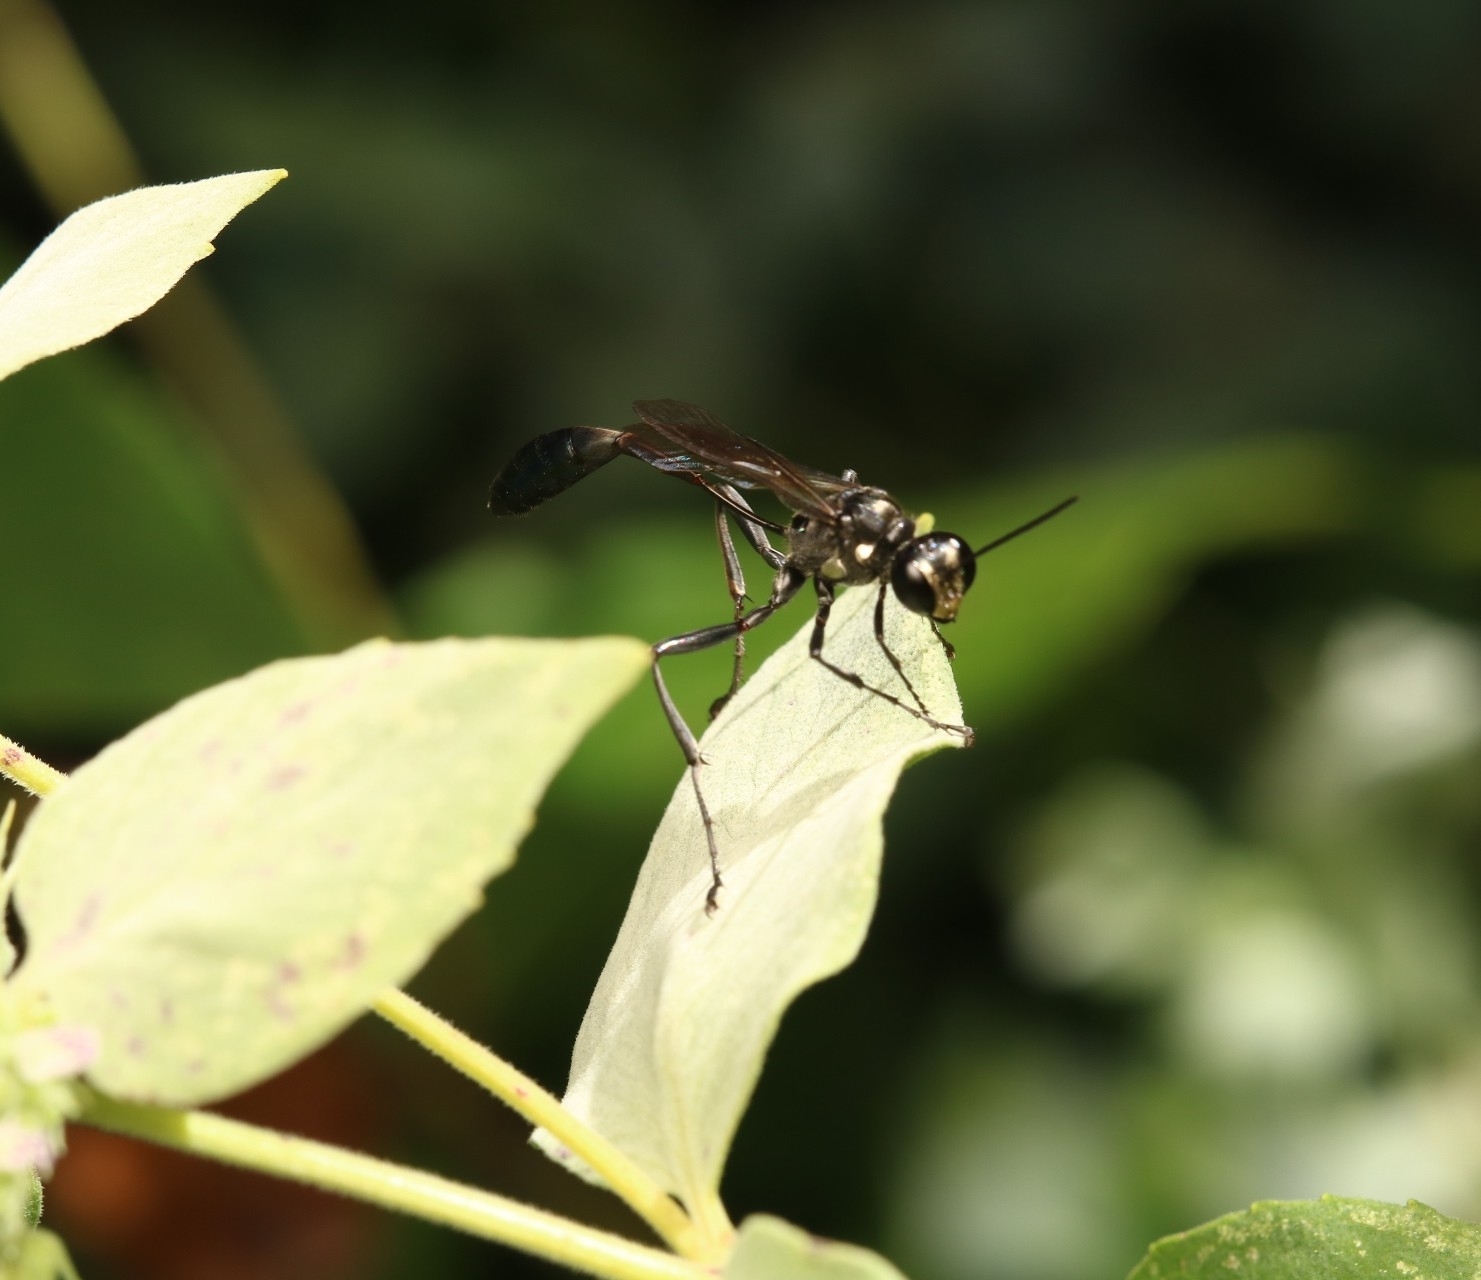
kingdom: Animalia
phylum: Arthropoda
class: Insecta
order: Hymenoptera
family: Sphecidae
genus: Eremnophila
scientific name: Eremnophila aureonotata
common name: Gold-marked thread-waisted wasp
